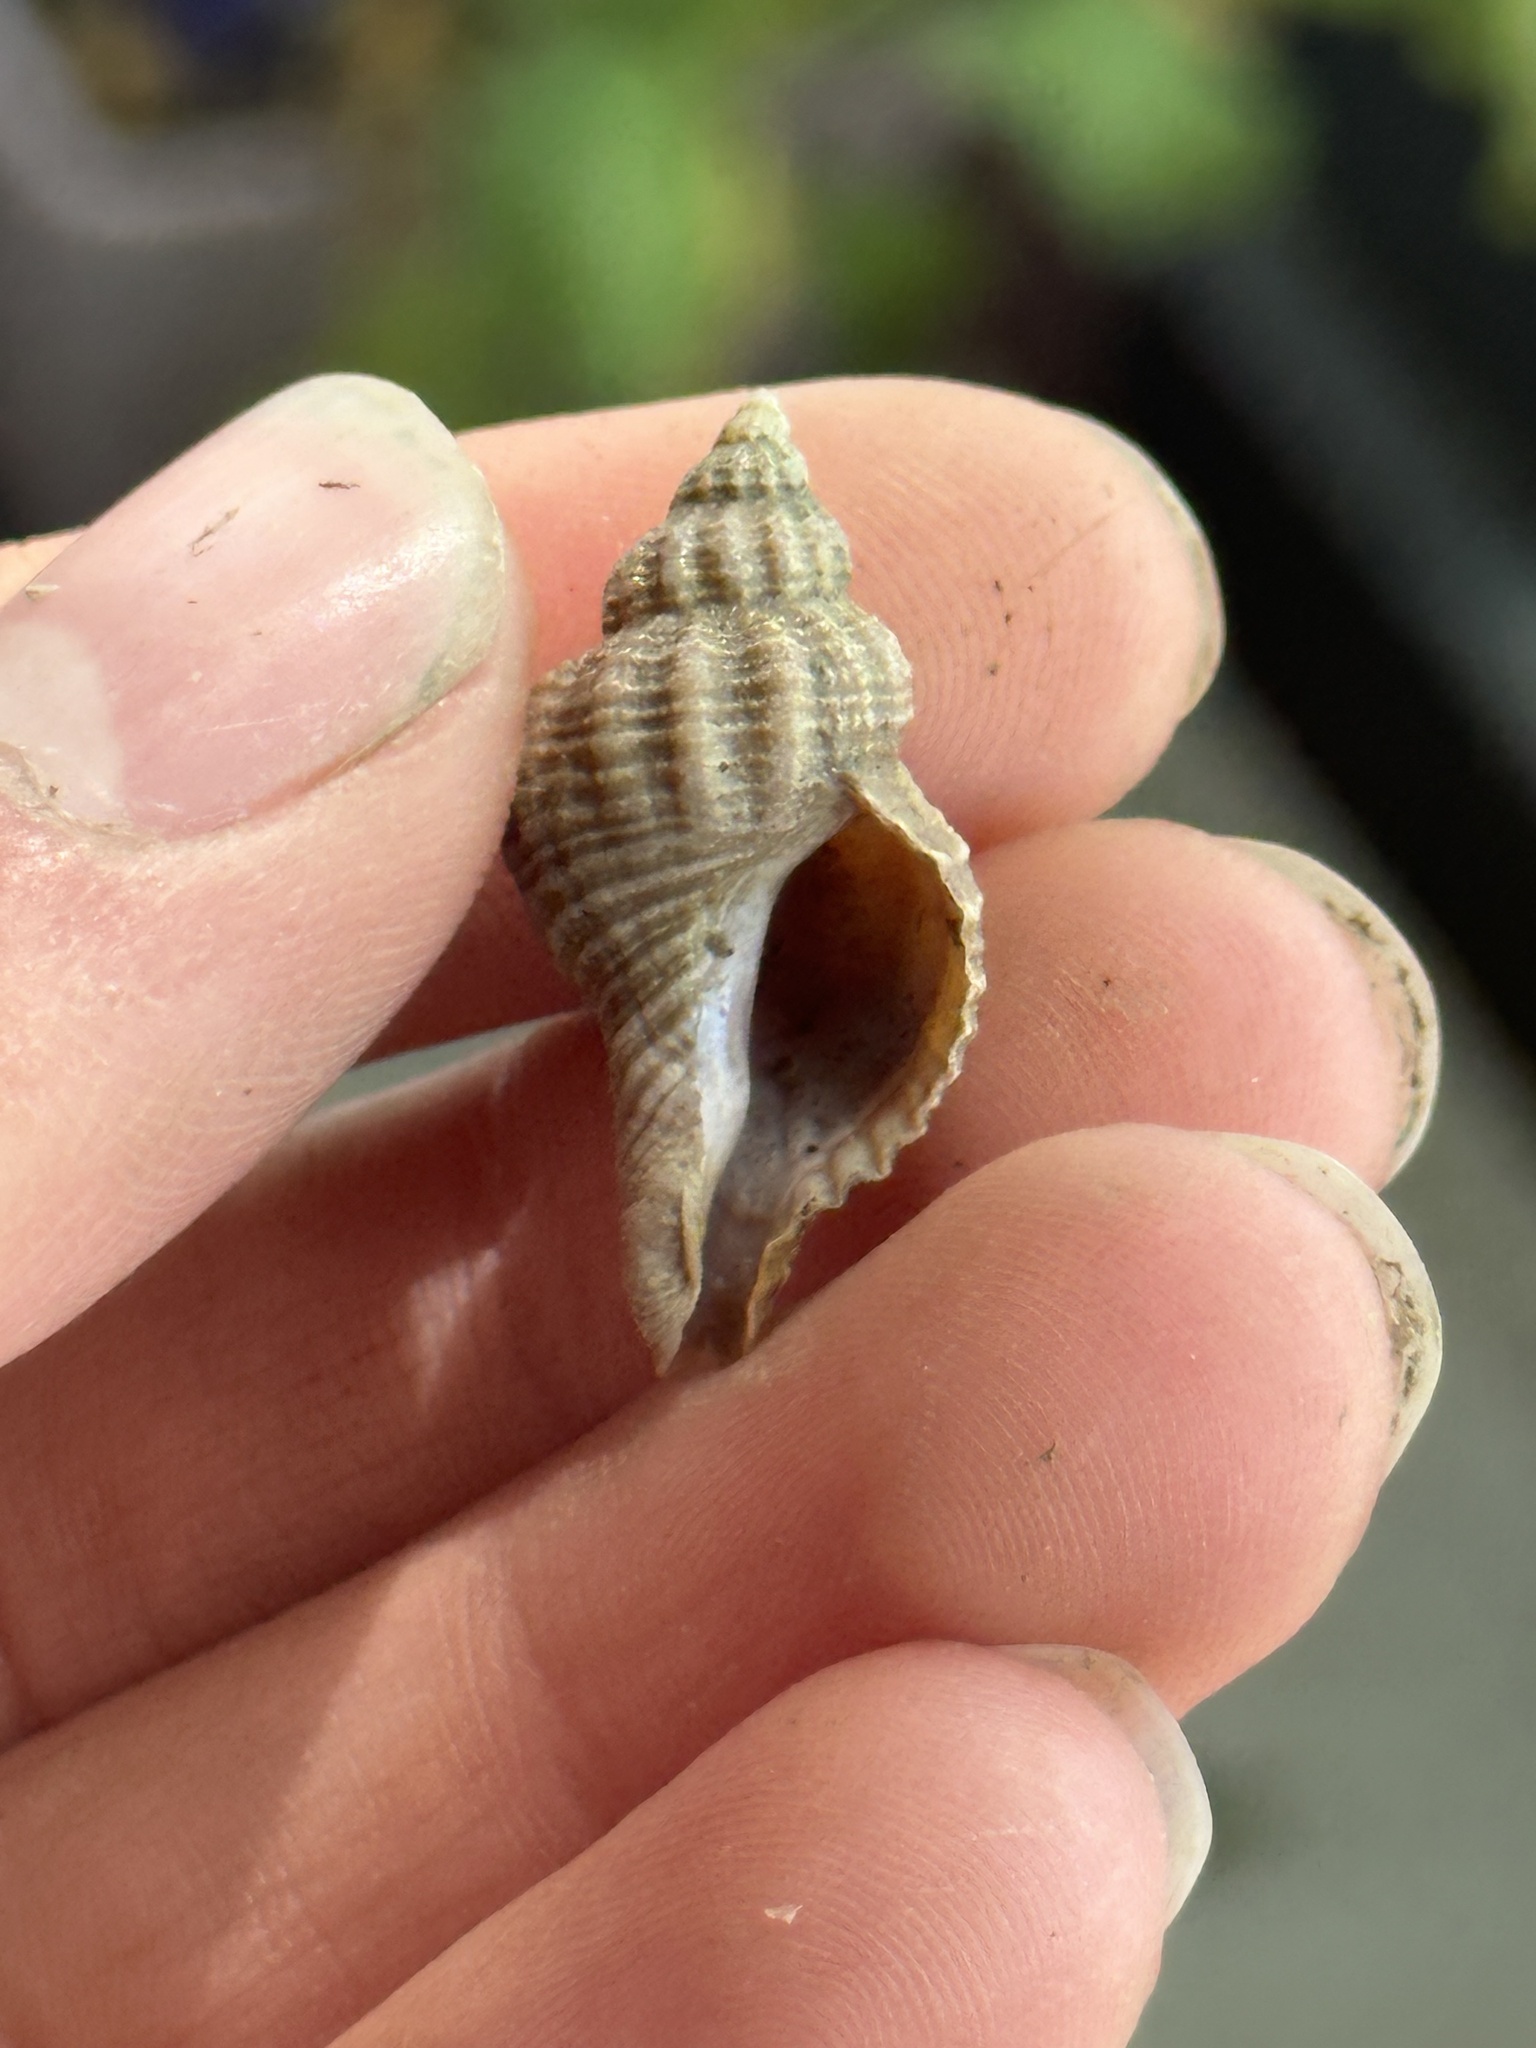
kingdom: Animalia
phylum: Mollusca
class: Gastropoda
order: Neogastropoda
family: Muricidae
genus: Urosalpinx
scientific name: Urosalpinx cinerea
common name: American sting winkle
